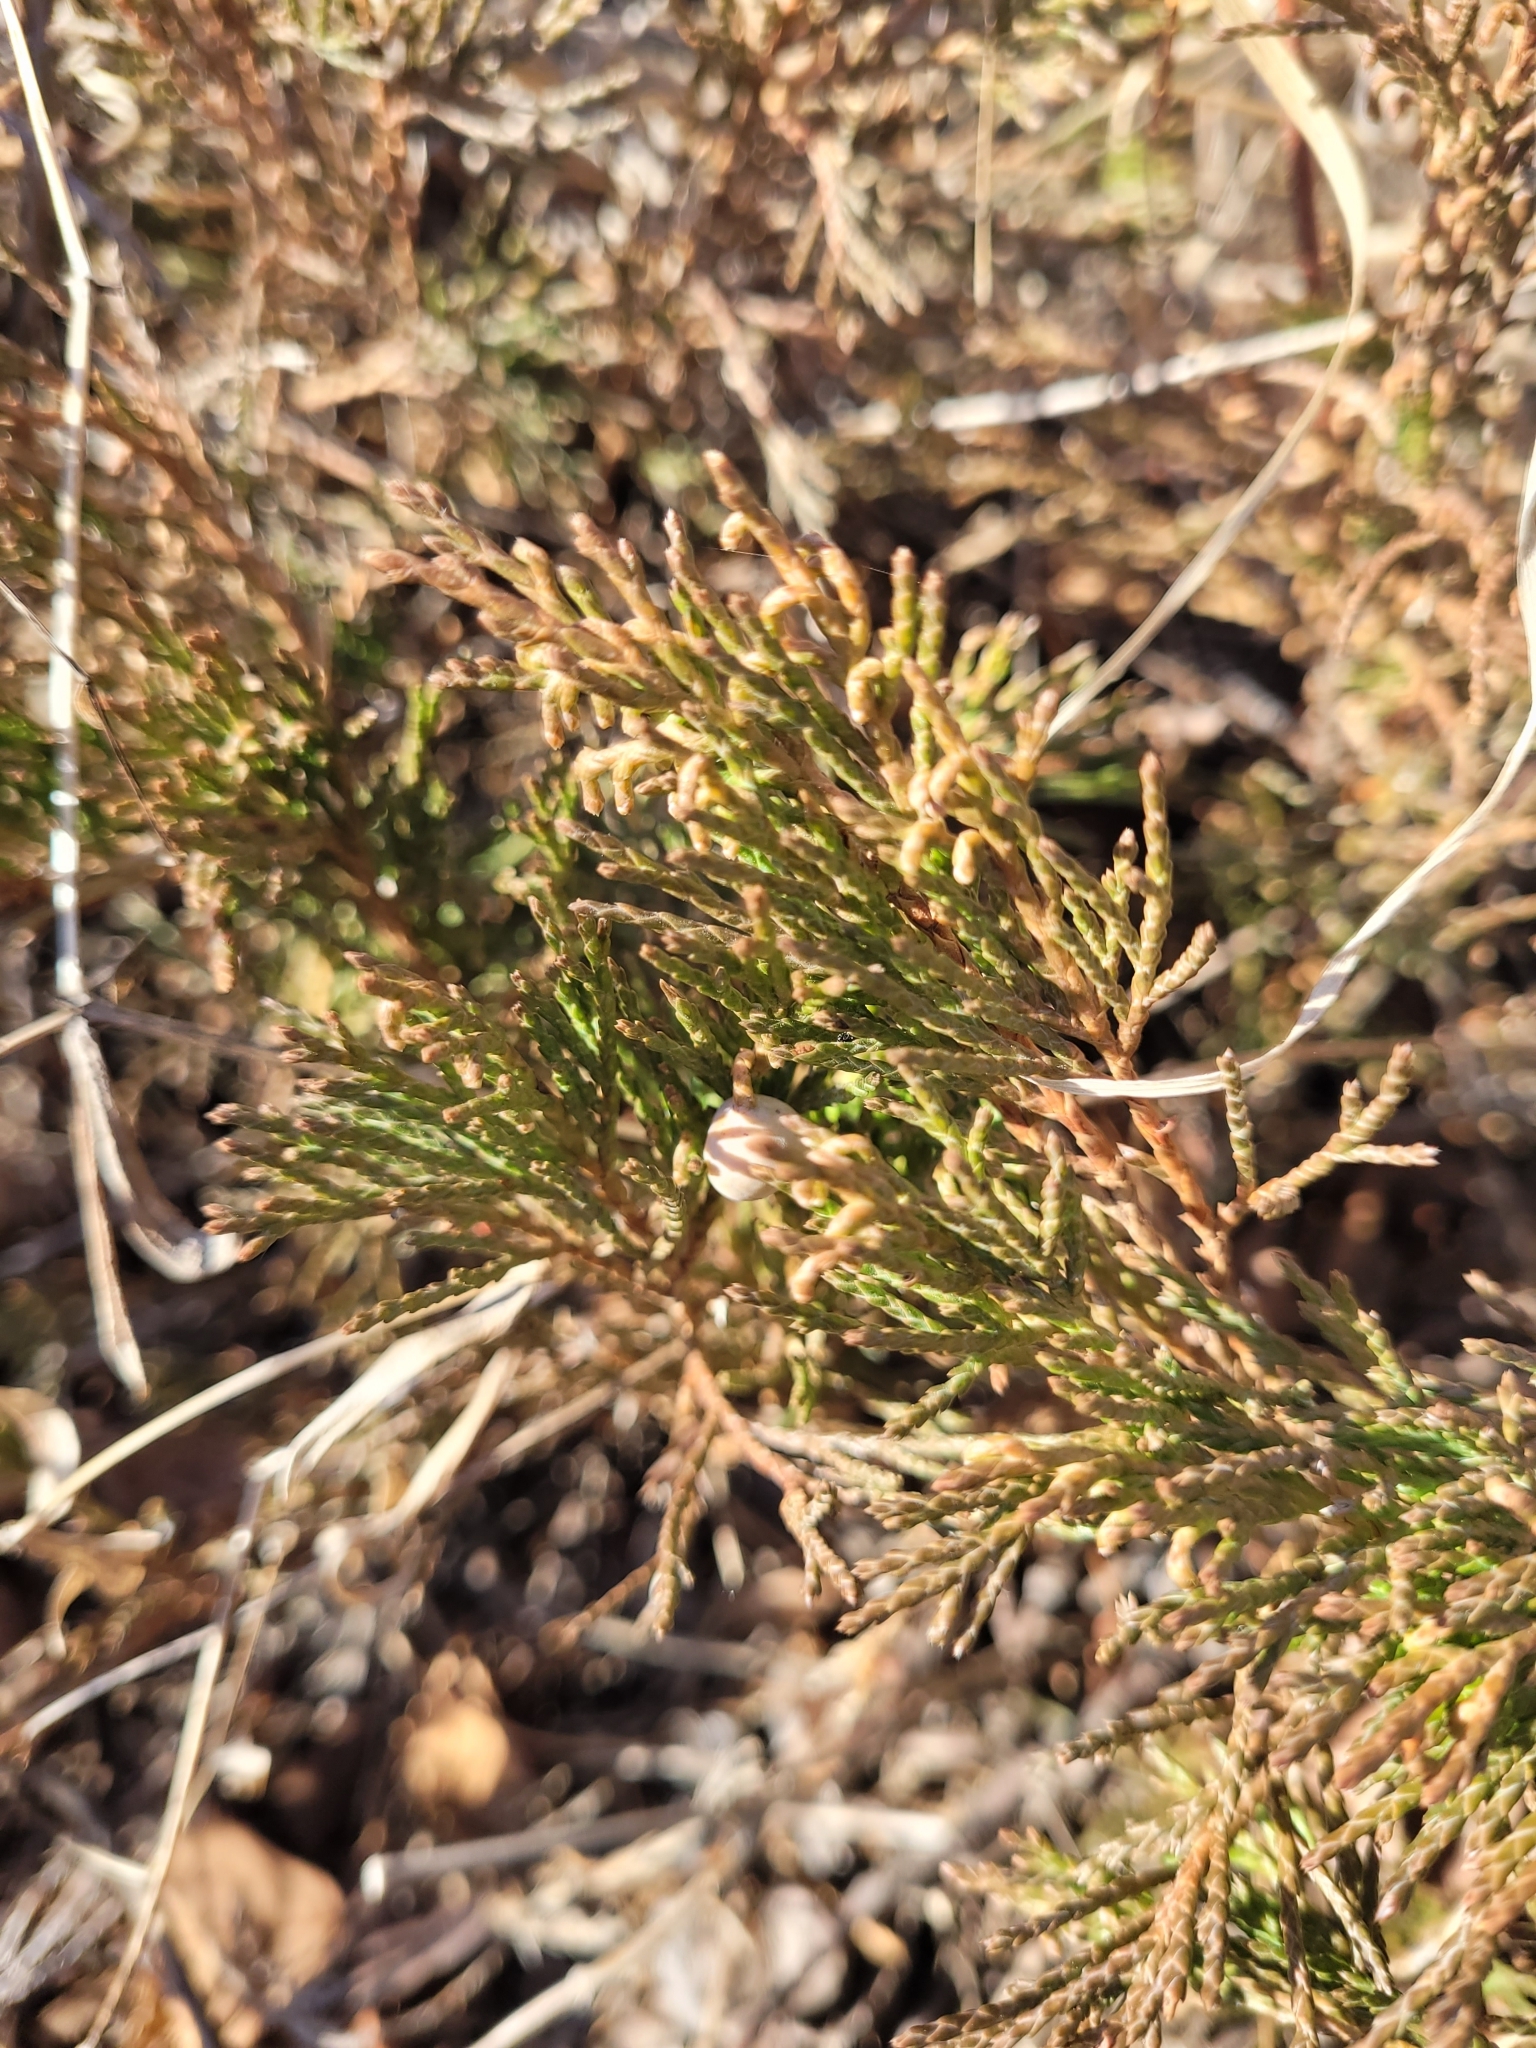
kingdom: Plantae
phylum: Tracheophyta
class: Pinopsida
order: Pinales
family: Cupressaceae
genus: Juniperus
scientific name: Juniperus horizontalis
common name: Creeping juniper
